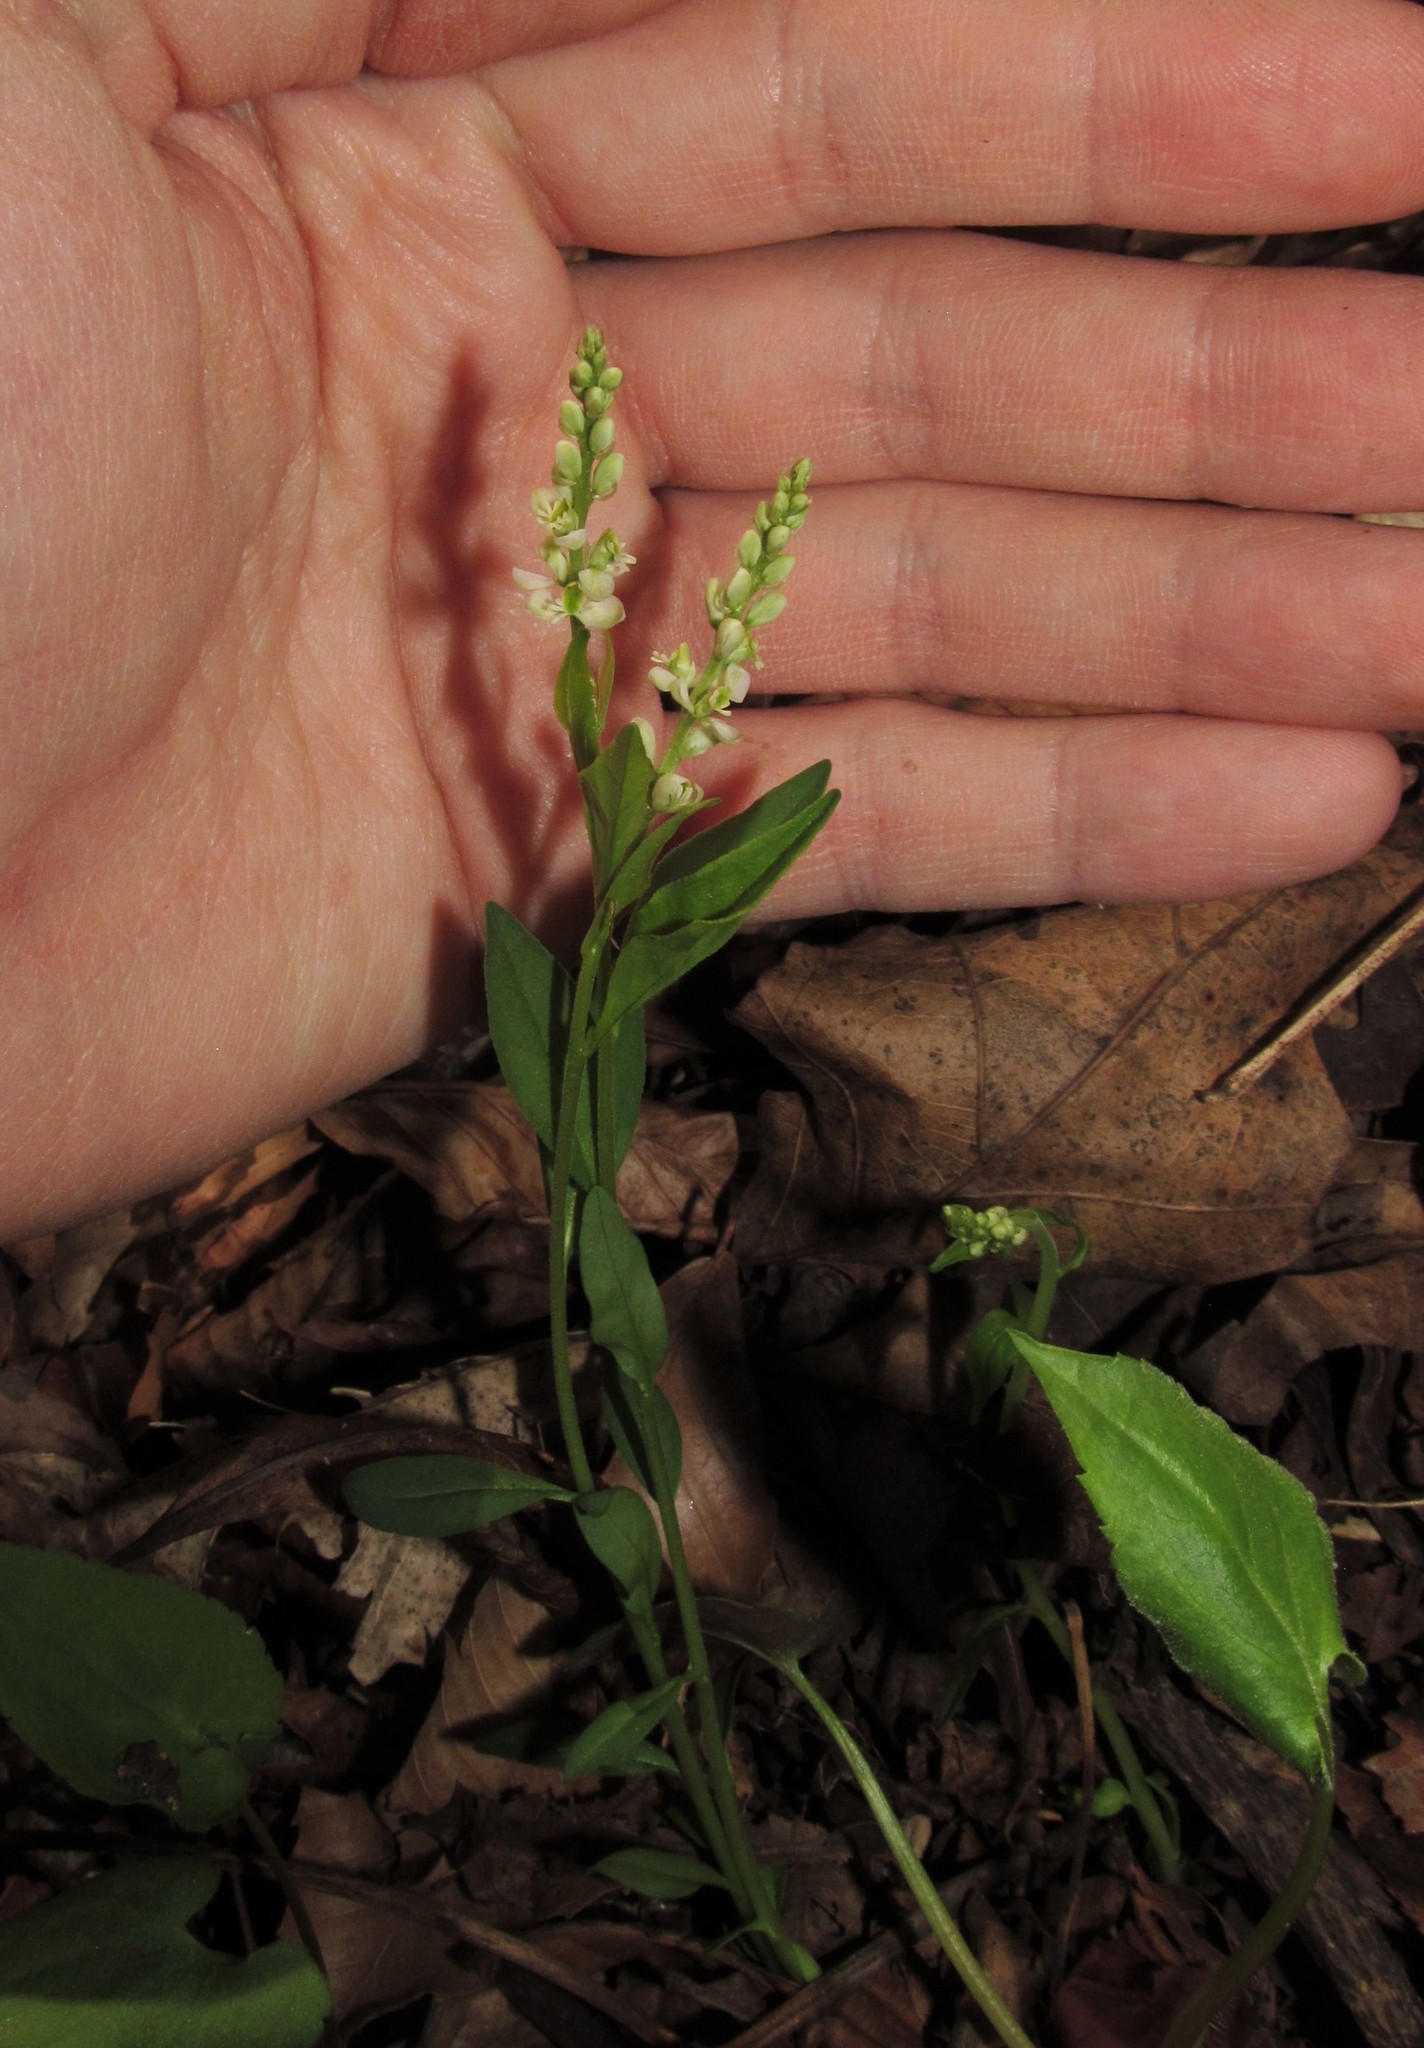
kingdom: Plantae
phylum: Tracheophyta
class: Magnoliopsida
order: Fabales
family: Polygalaceae
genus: Polygala
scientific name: Polygala senega
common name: Seneca snakeroot
